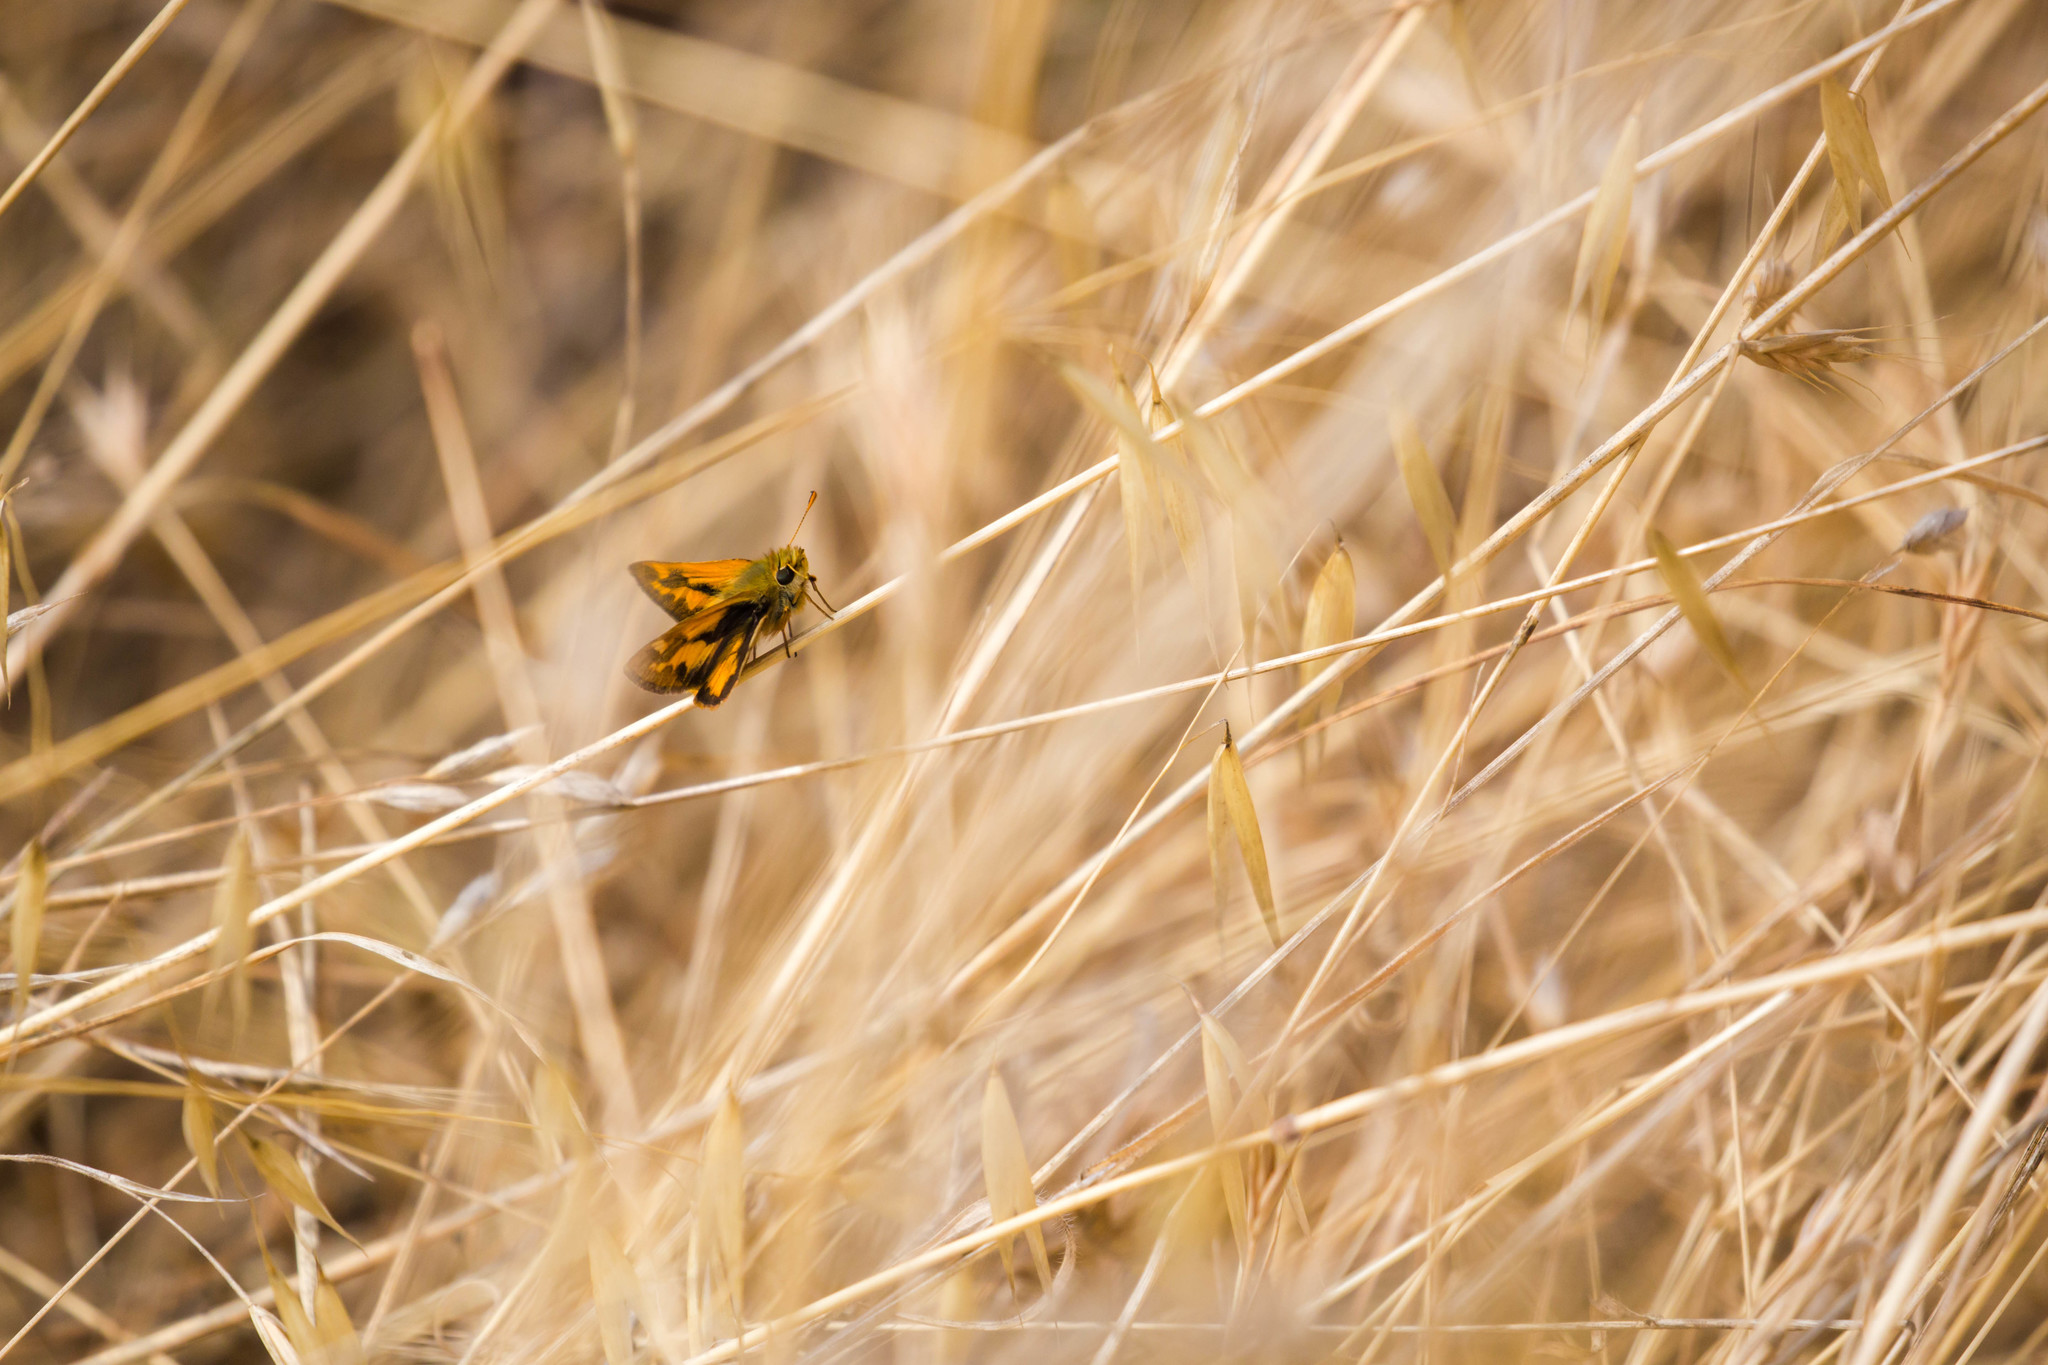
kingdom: Animalia
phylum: Arthropoda
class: Insecta
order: Lepidoptera
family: Hesperiidae
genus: Ochlodes
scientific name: Ochlodes sylvanoides
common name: Woodland skipper
